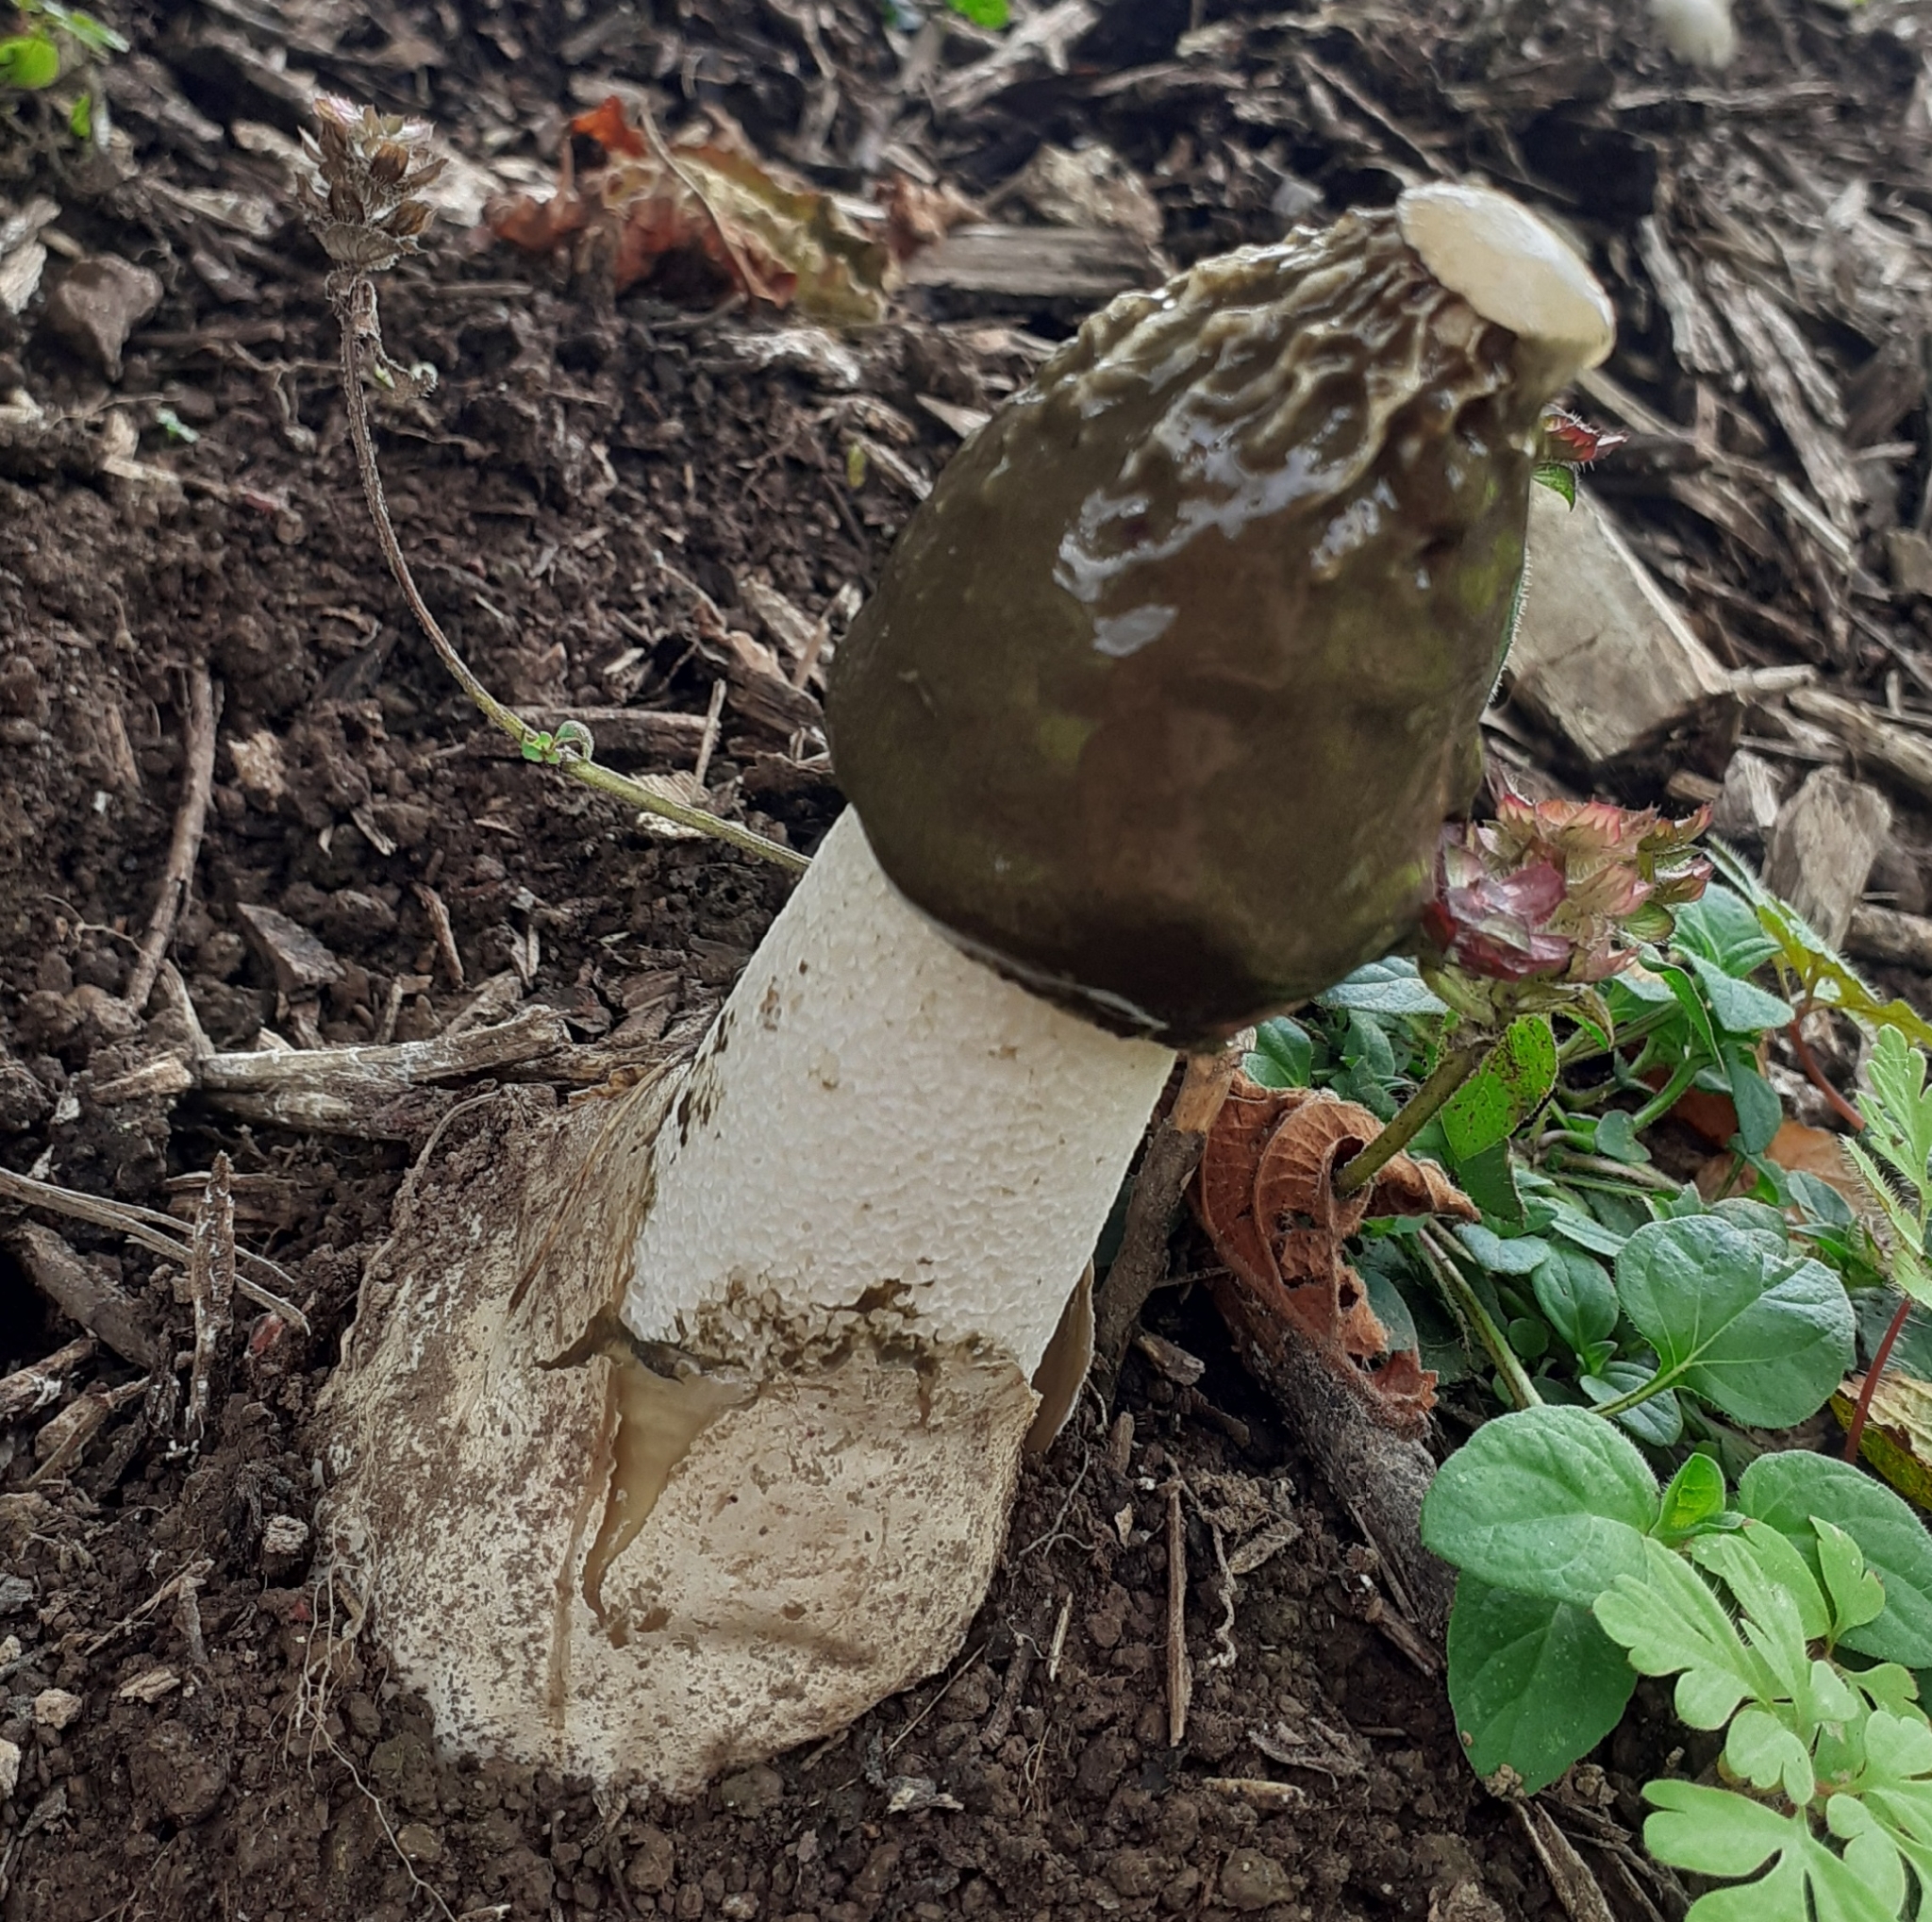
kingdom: Fungi
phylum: Basidiomycota
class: Agaricomycetes
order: Phallales
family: Phallaceae
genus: Phallus
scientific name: Phallus impudicus
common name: Common stinkhorn
